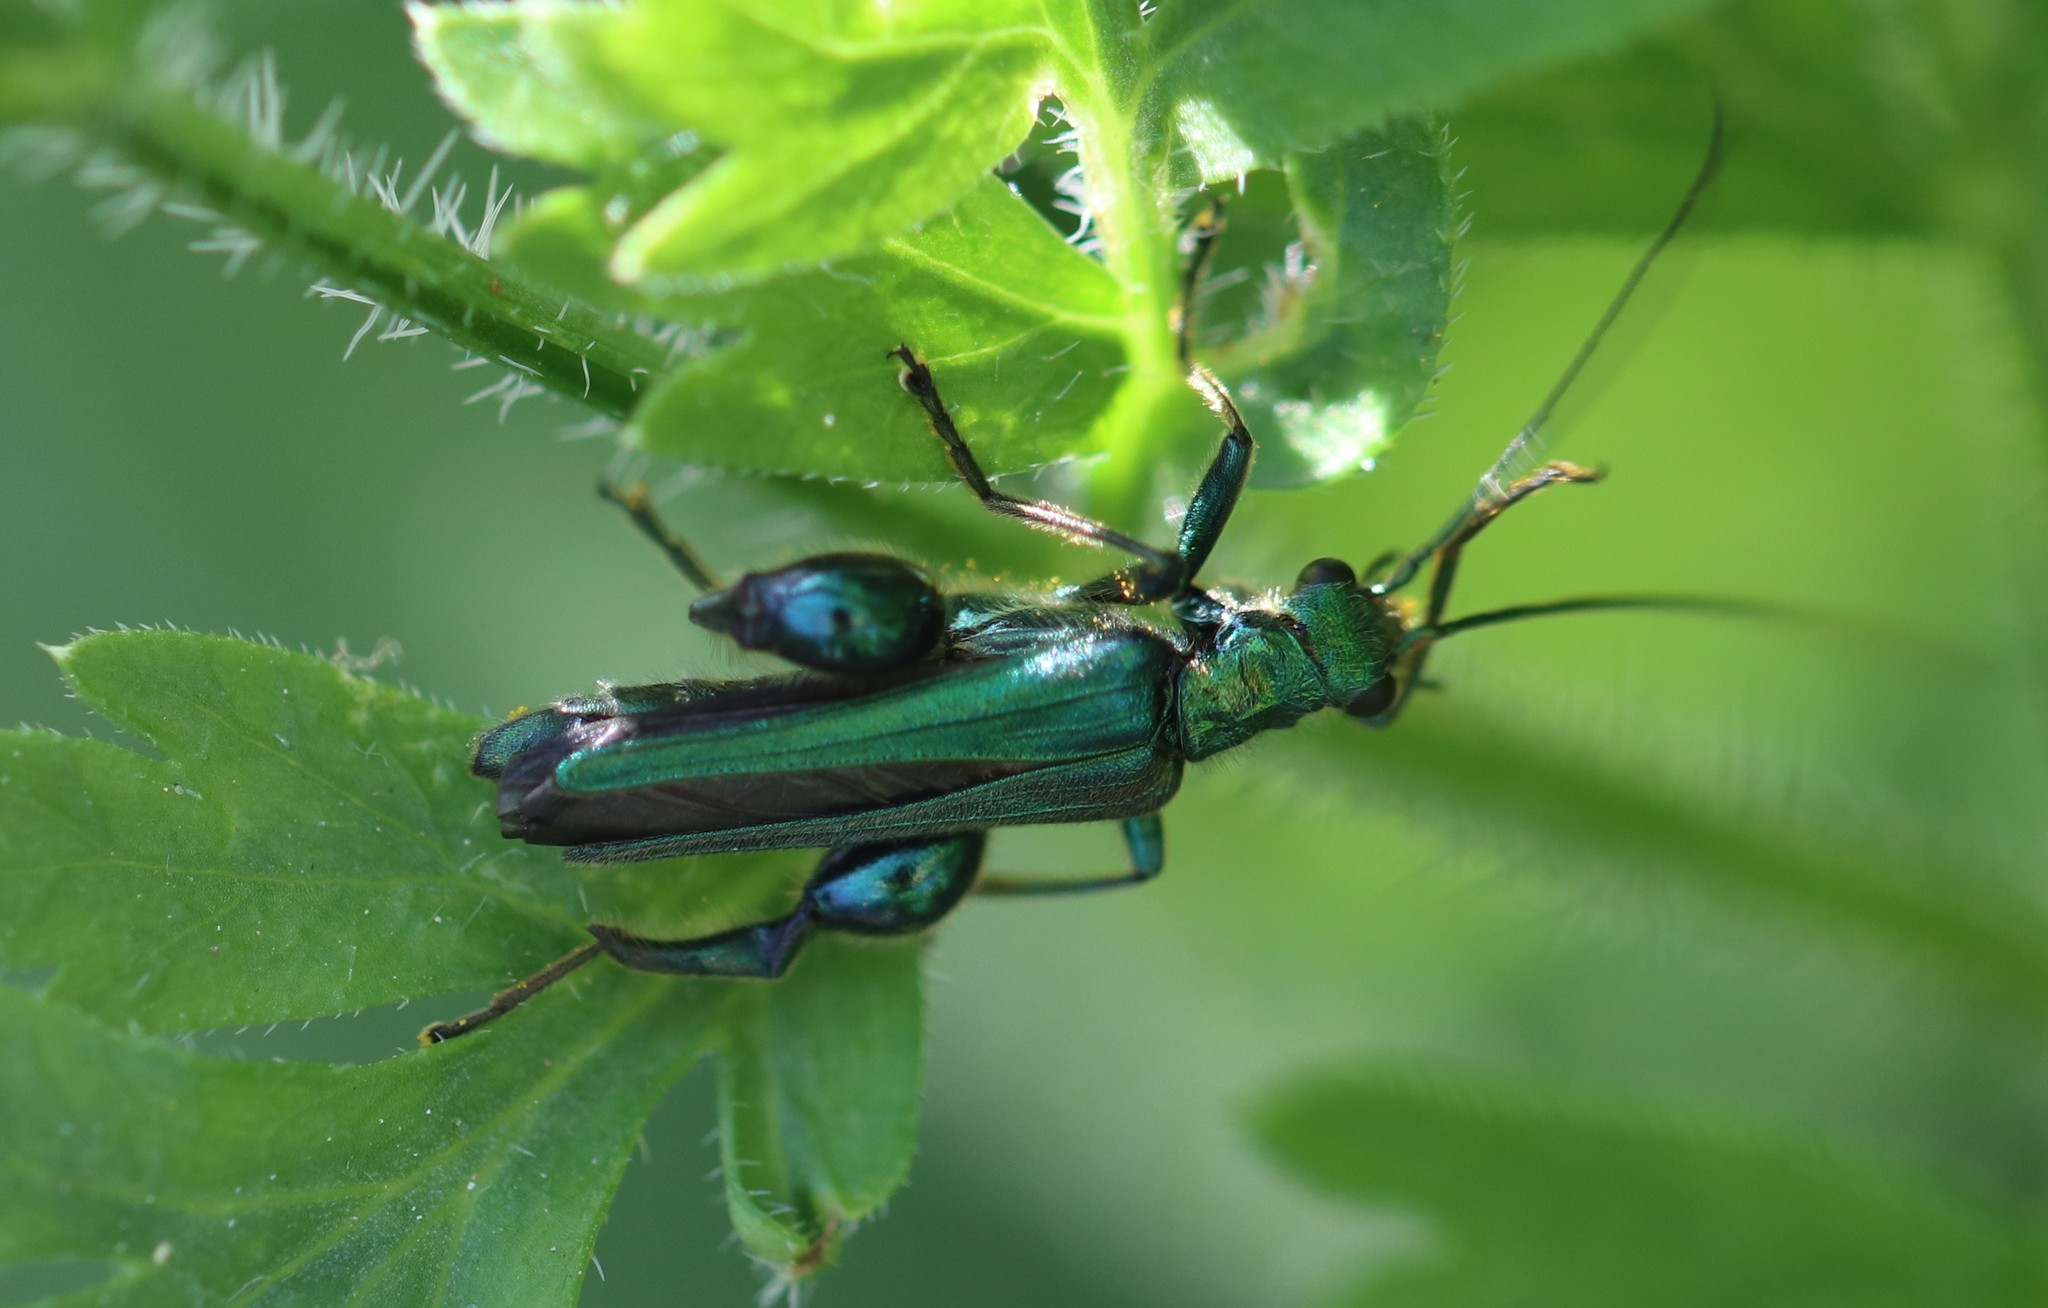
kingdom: Animalia
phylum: Arthropoda
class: Insecta
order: Coleoptera
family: Oedemeridae
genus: Oedemera
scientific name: Oedemera nobilis
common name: Swollen-thighed beetle
